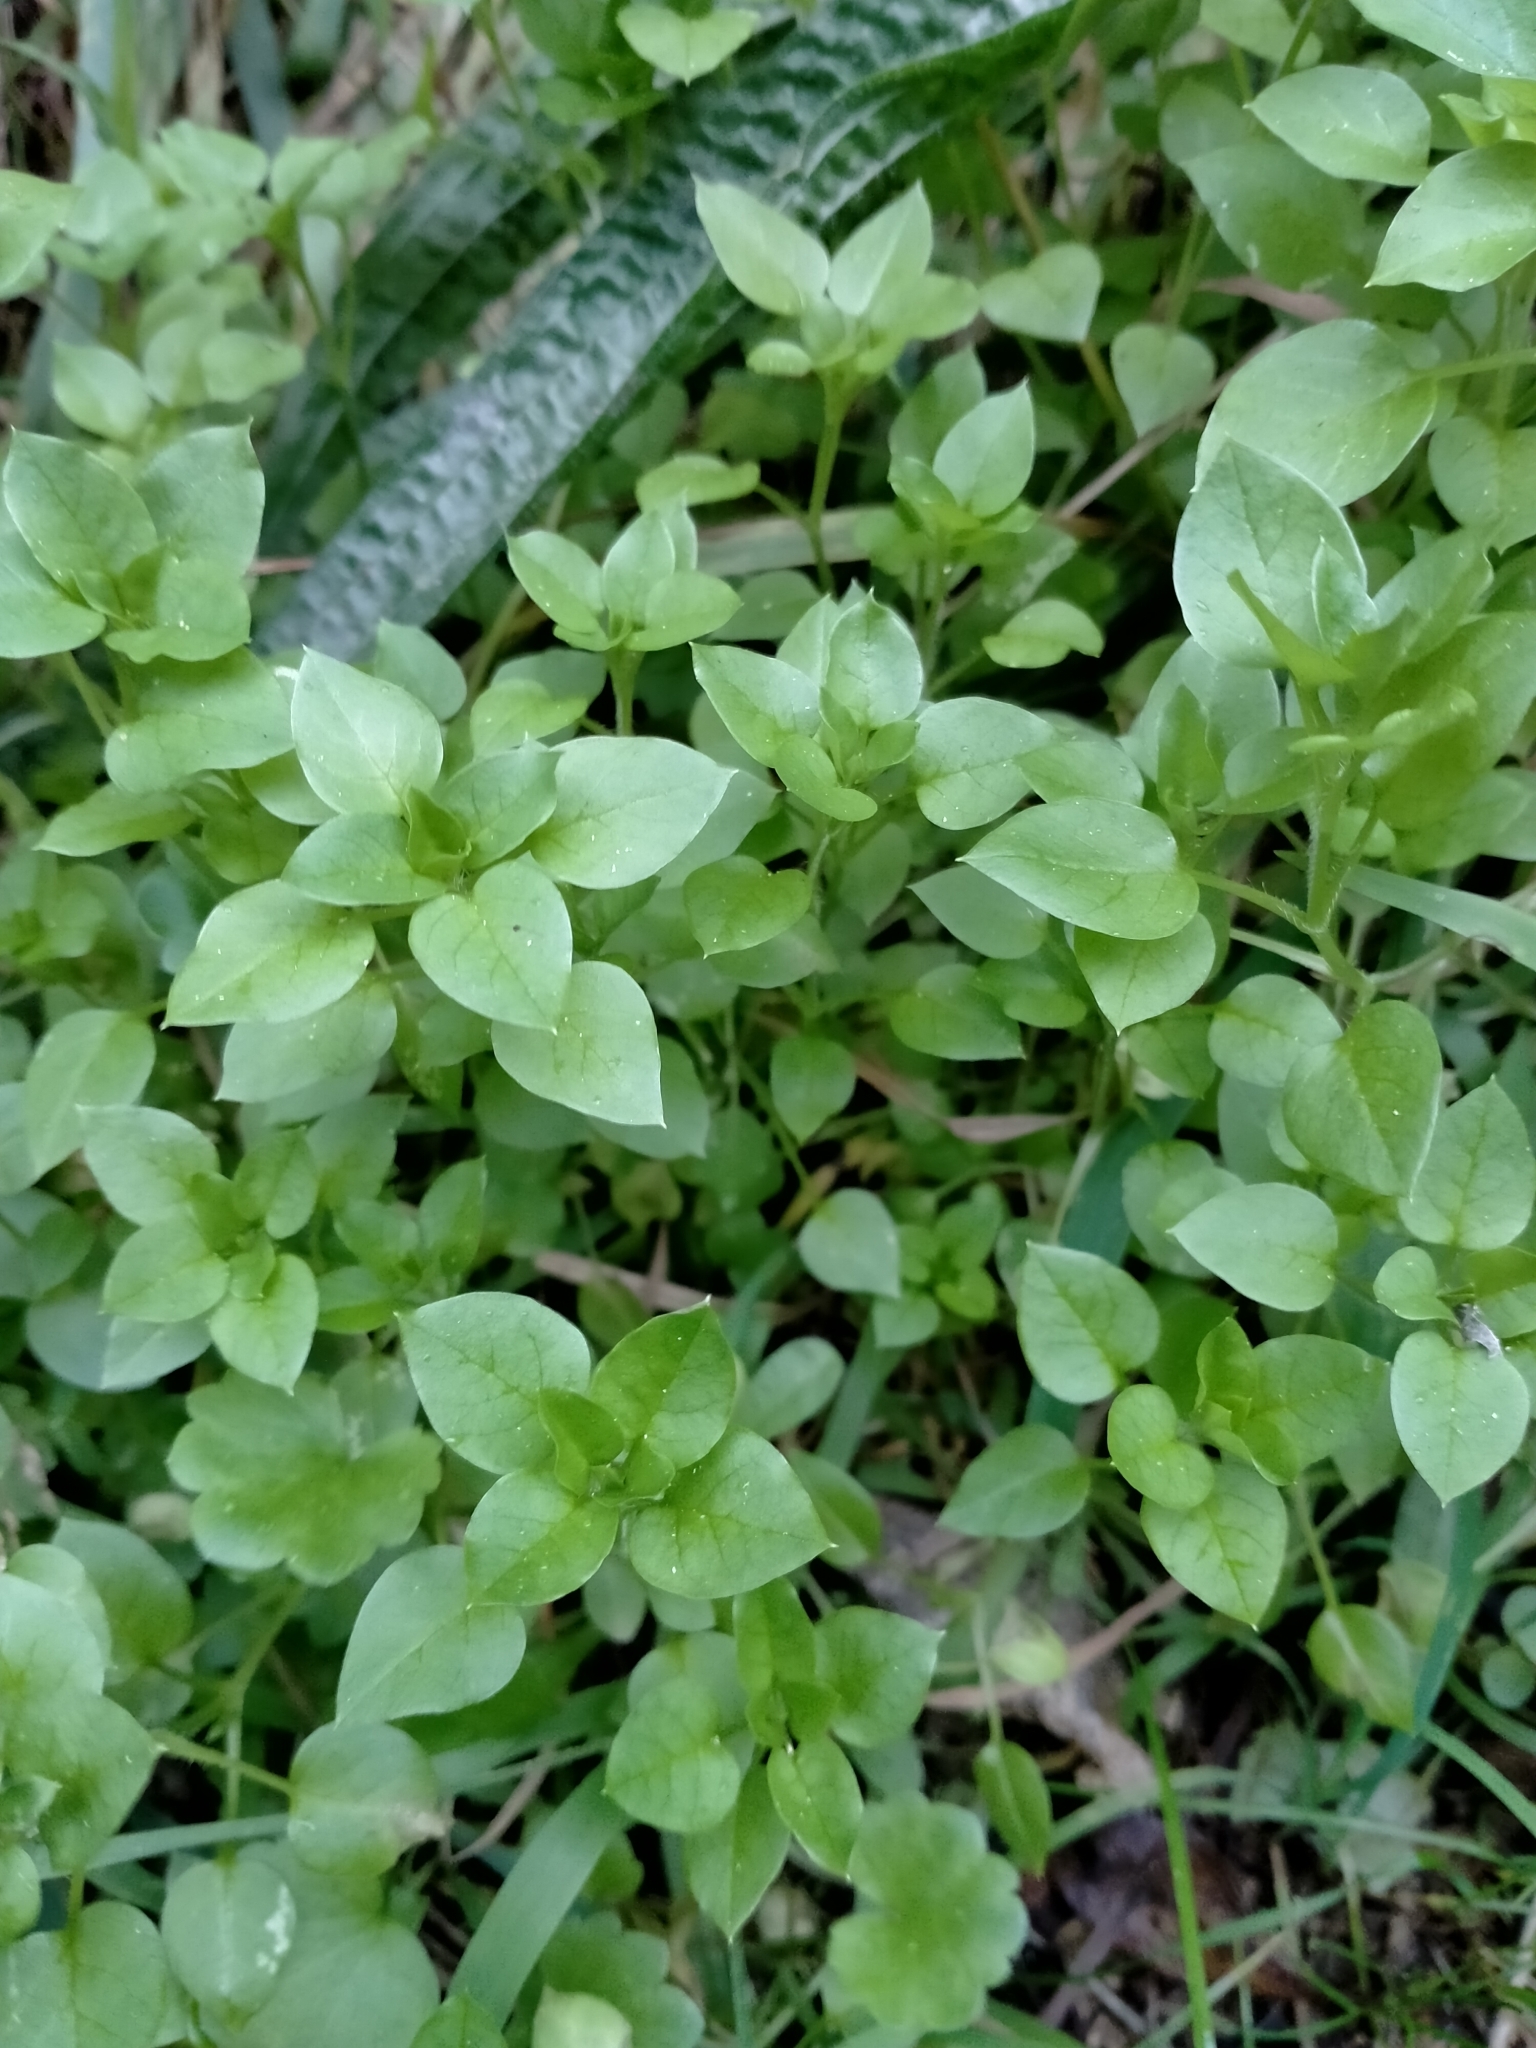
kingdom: Plantae
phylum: Tracheophyta
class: Magnoliopsida
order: Caryophyllales
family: Caryophyllaceae
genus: Stellaria
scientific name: Stellaria media
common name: Common chickweed
